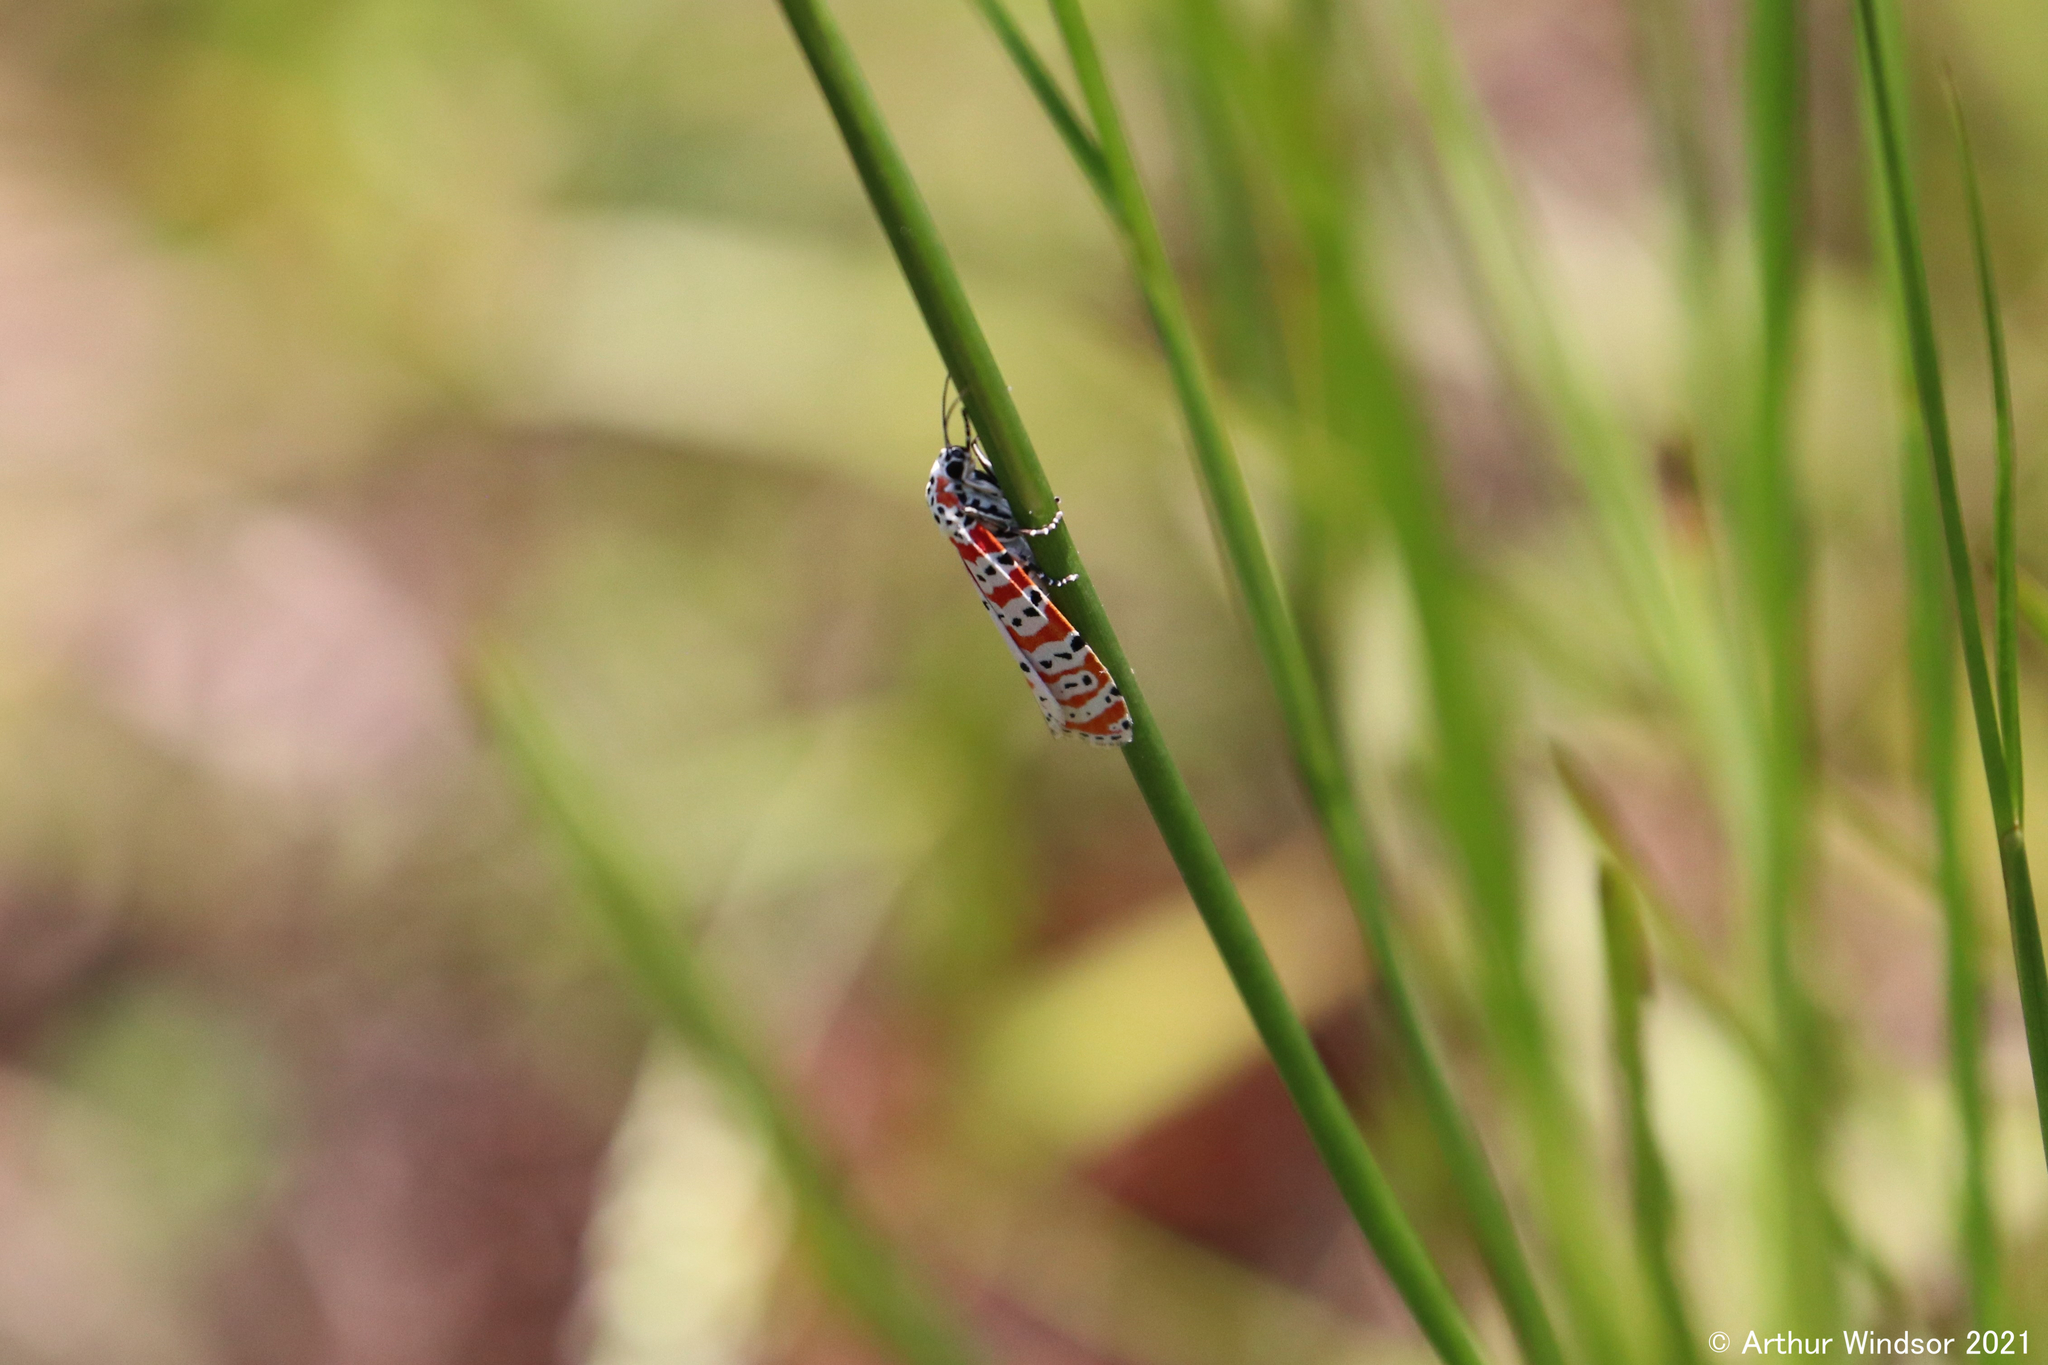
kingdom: Animalia
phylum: Arthropoda
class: Insecta
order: Lepidoptera
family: Erebidae
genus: Utetheisa
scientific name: Utetheisa ornatrix
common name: Beautiful utetheisa
